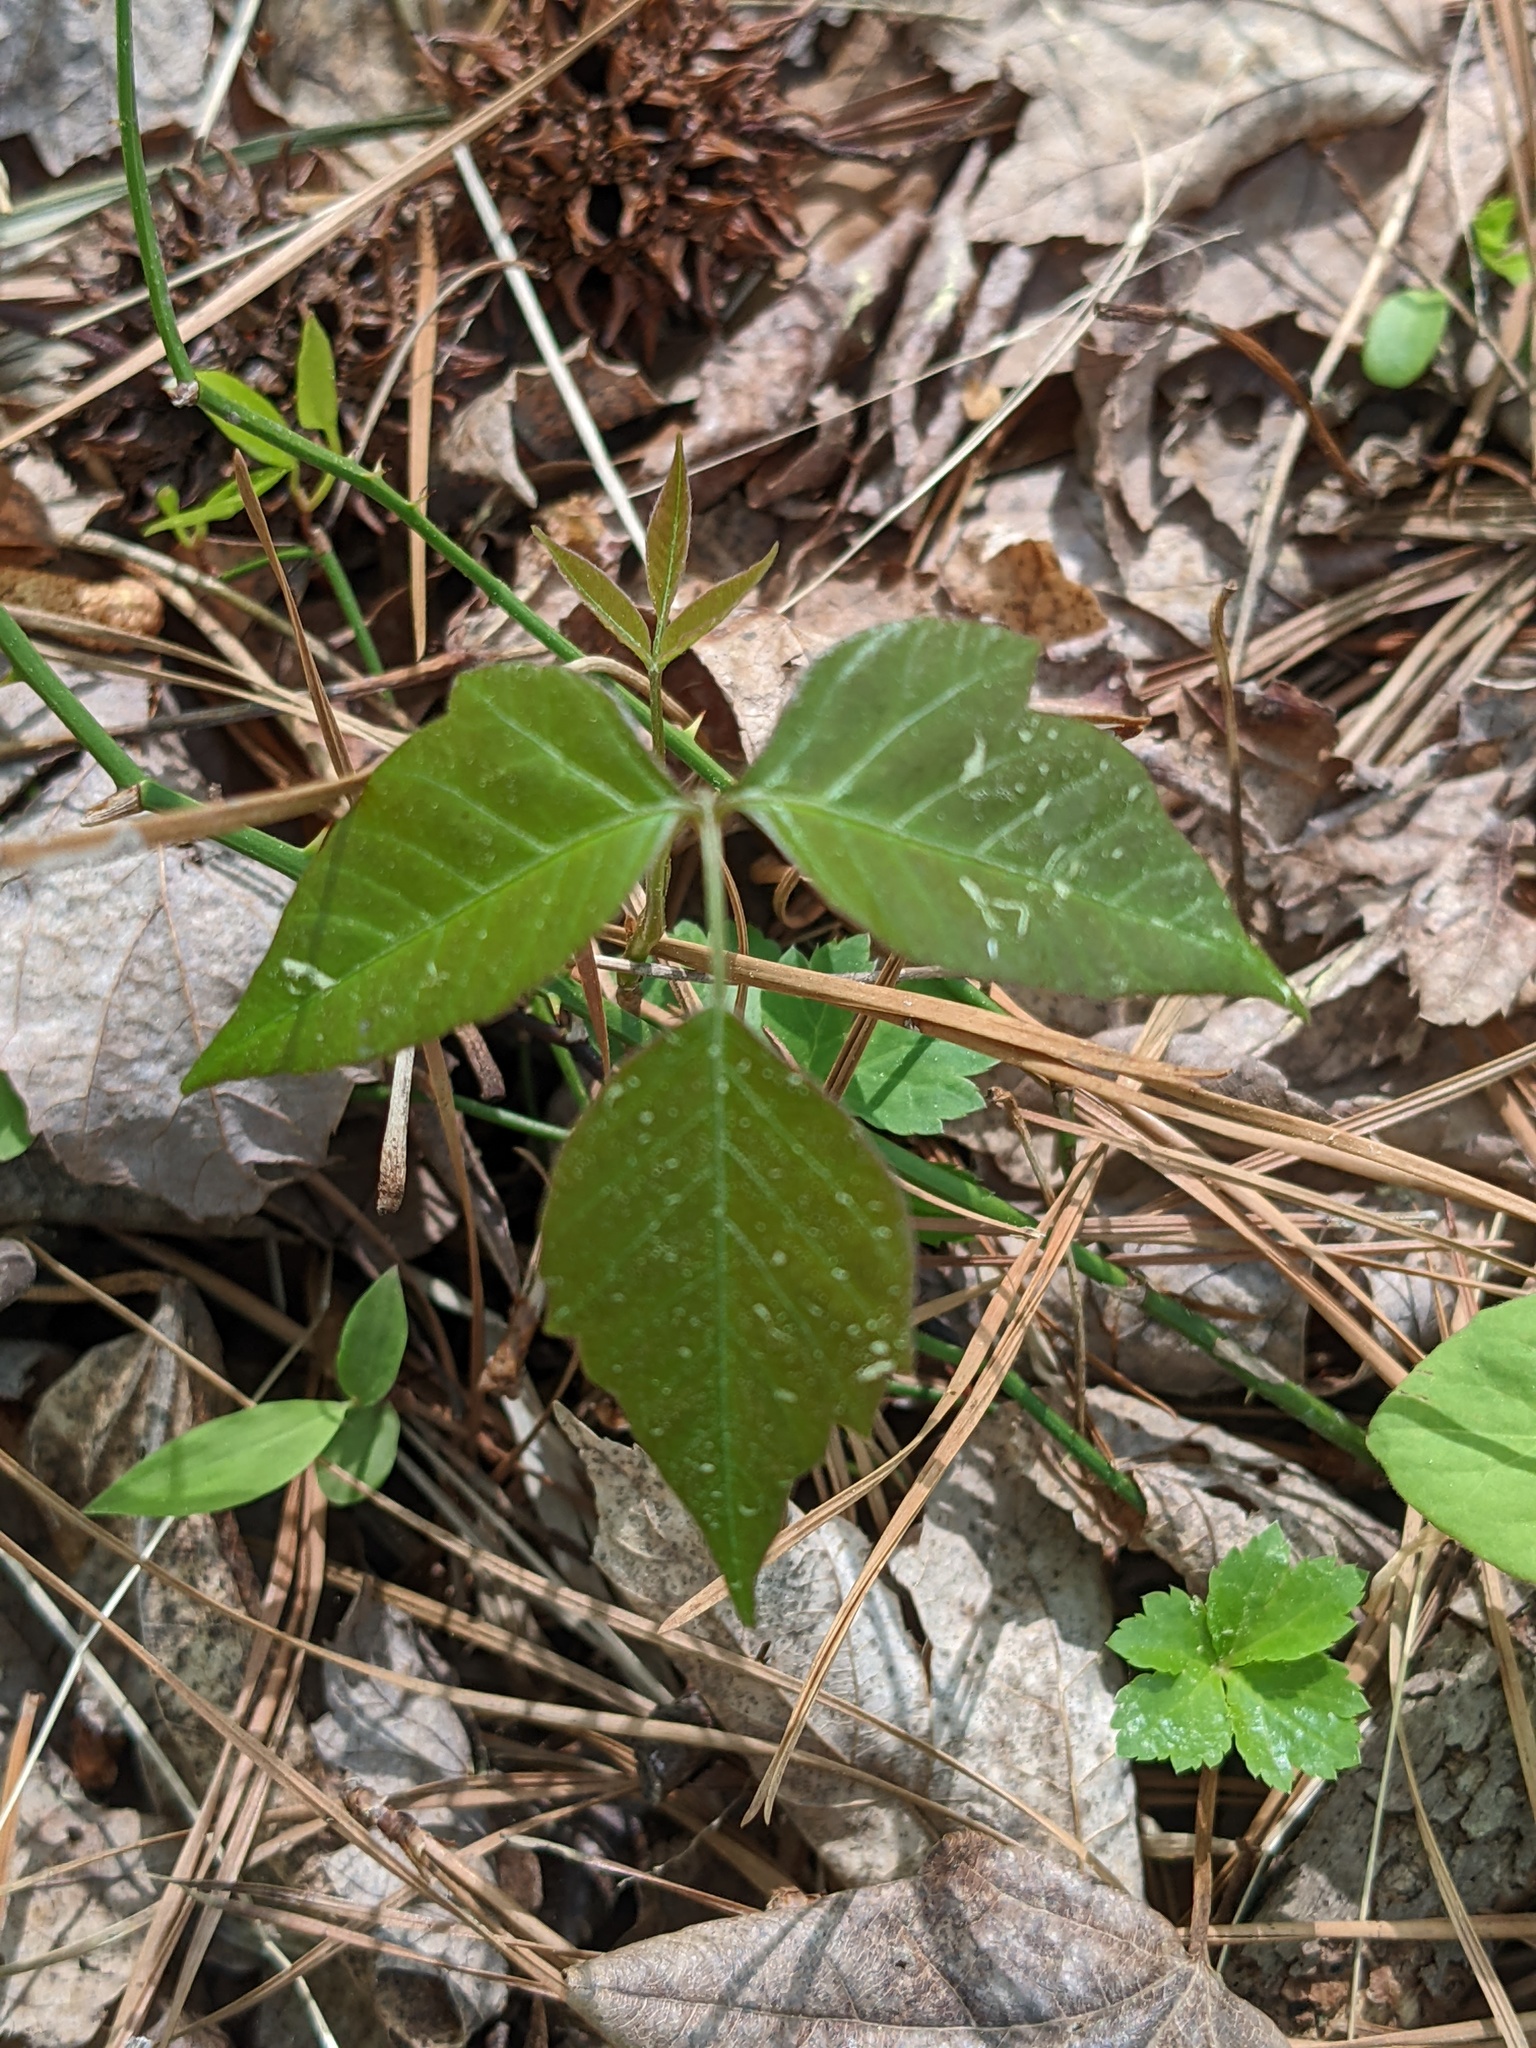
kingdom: Plantae
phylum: Tracheophyta
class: Magnoliopsida
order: Sapindales
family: Anacardiaceae
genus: Toxicodendron
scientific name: Toxicodendron radicans
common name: Poison ivy
